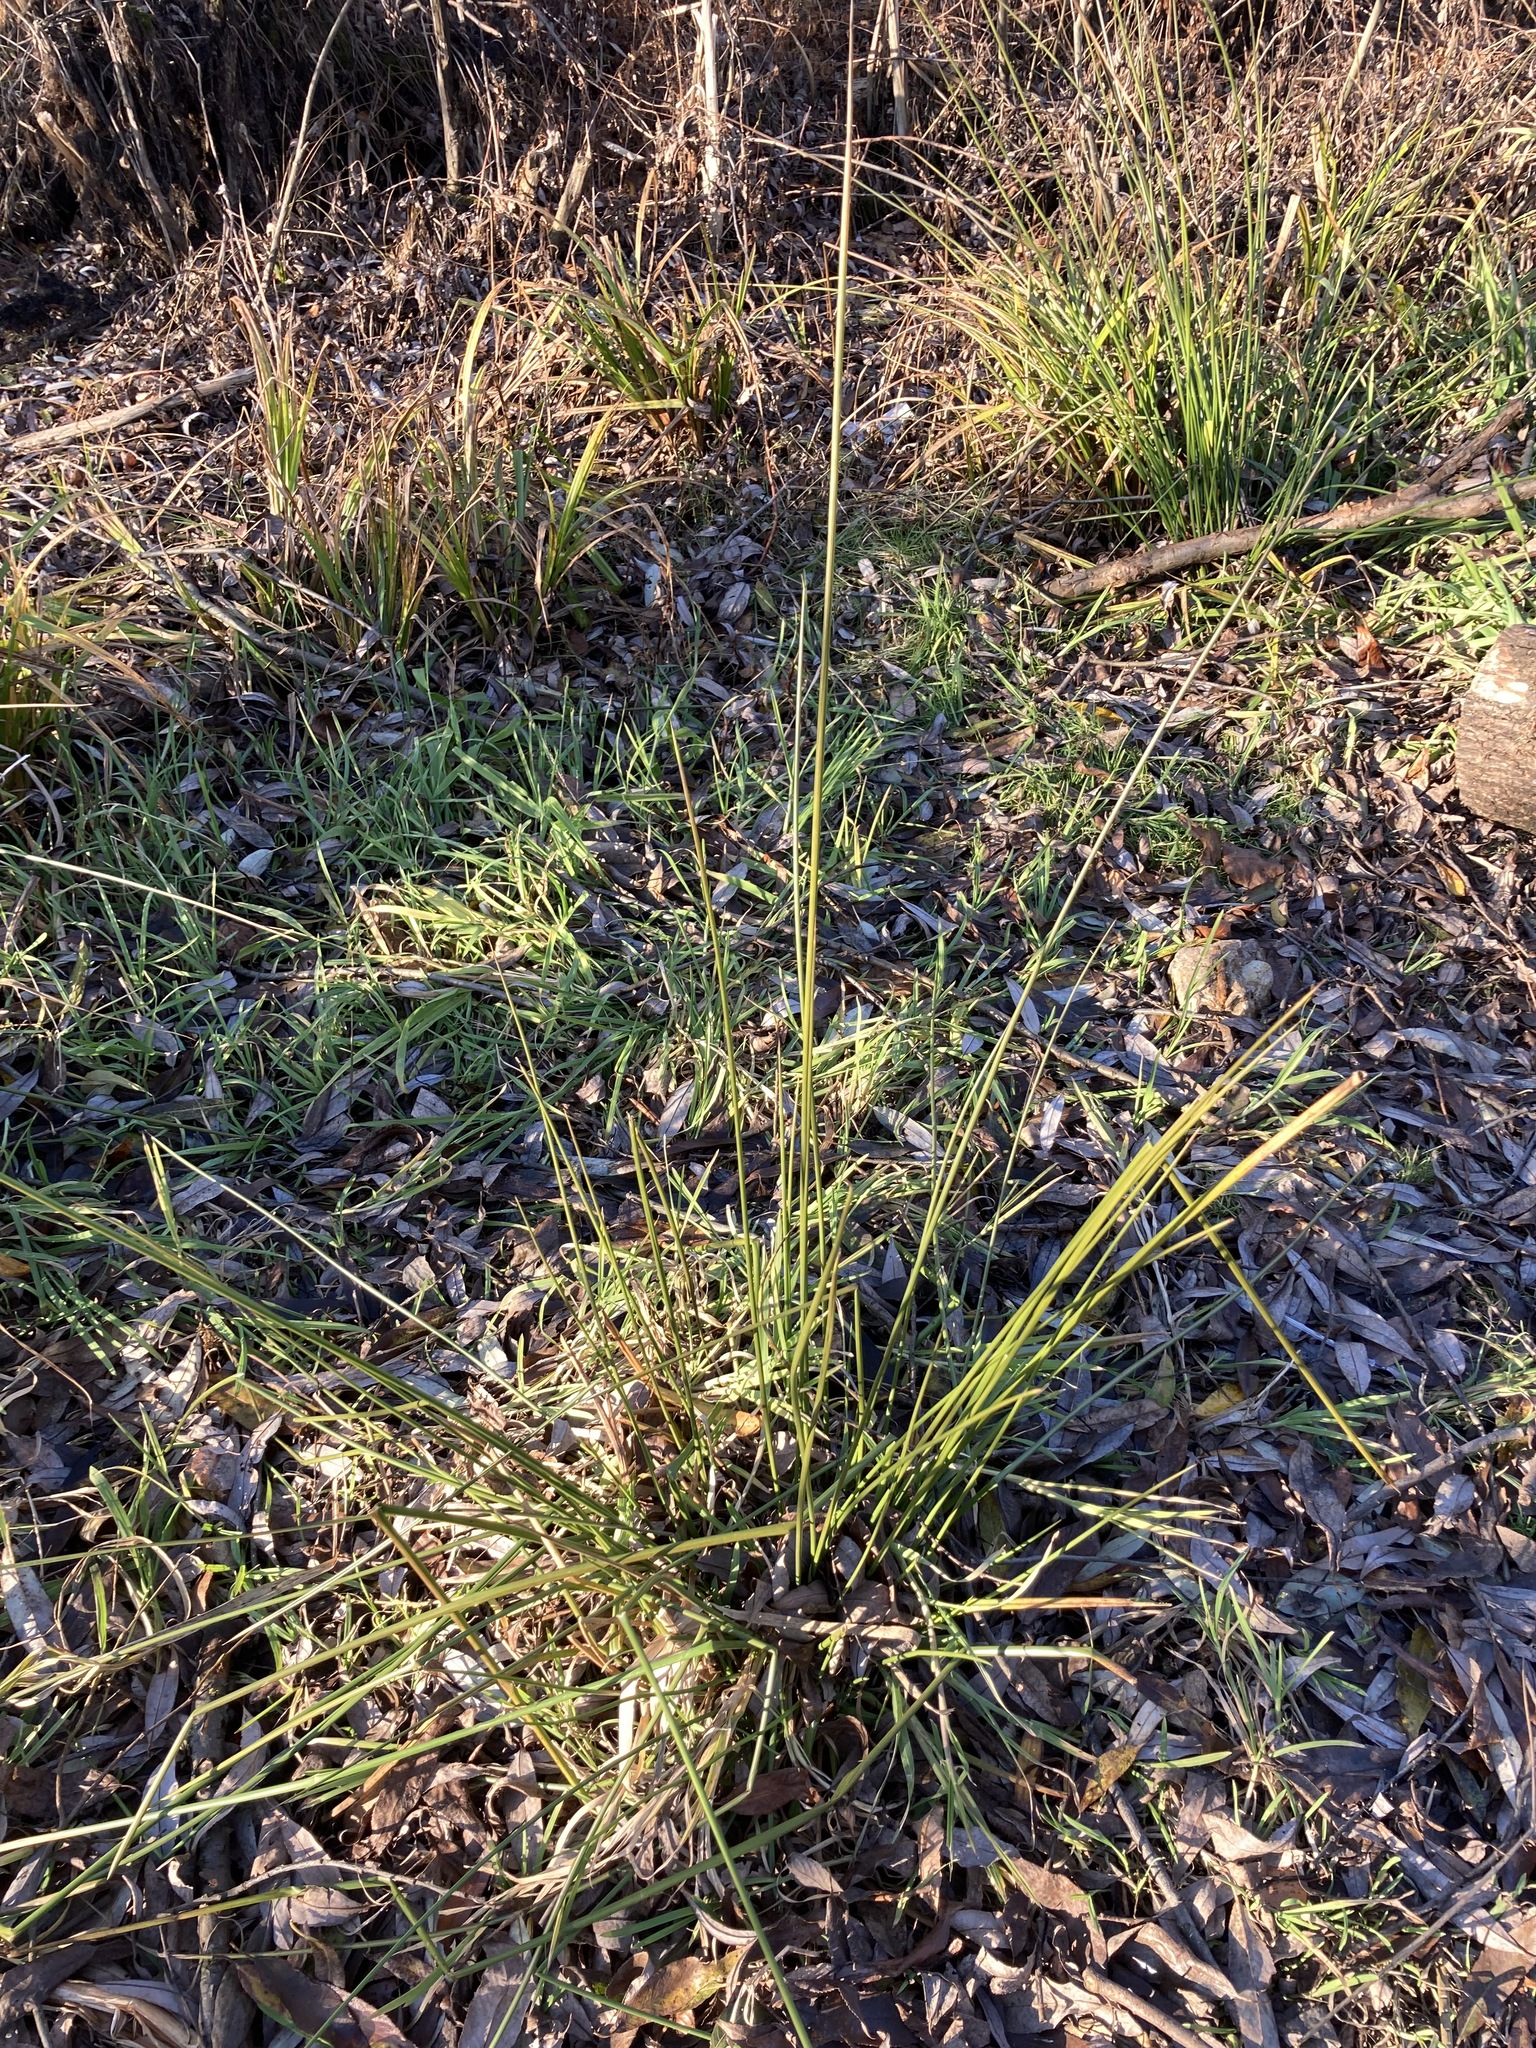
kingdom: Plantae
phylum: Tracheophyta
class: Liliopsida
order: Poales
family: Juncaceae
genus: Juncus
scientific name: Juncus effusus
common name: Soft rush
